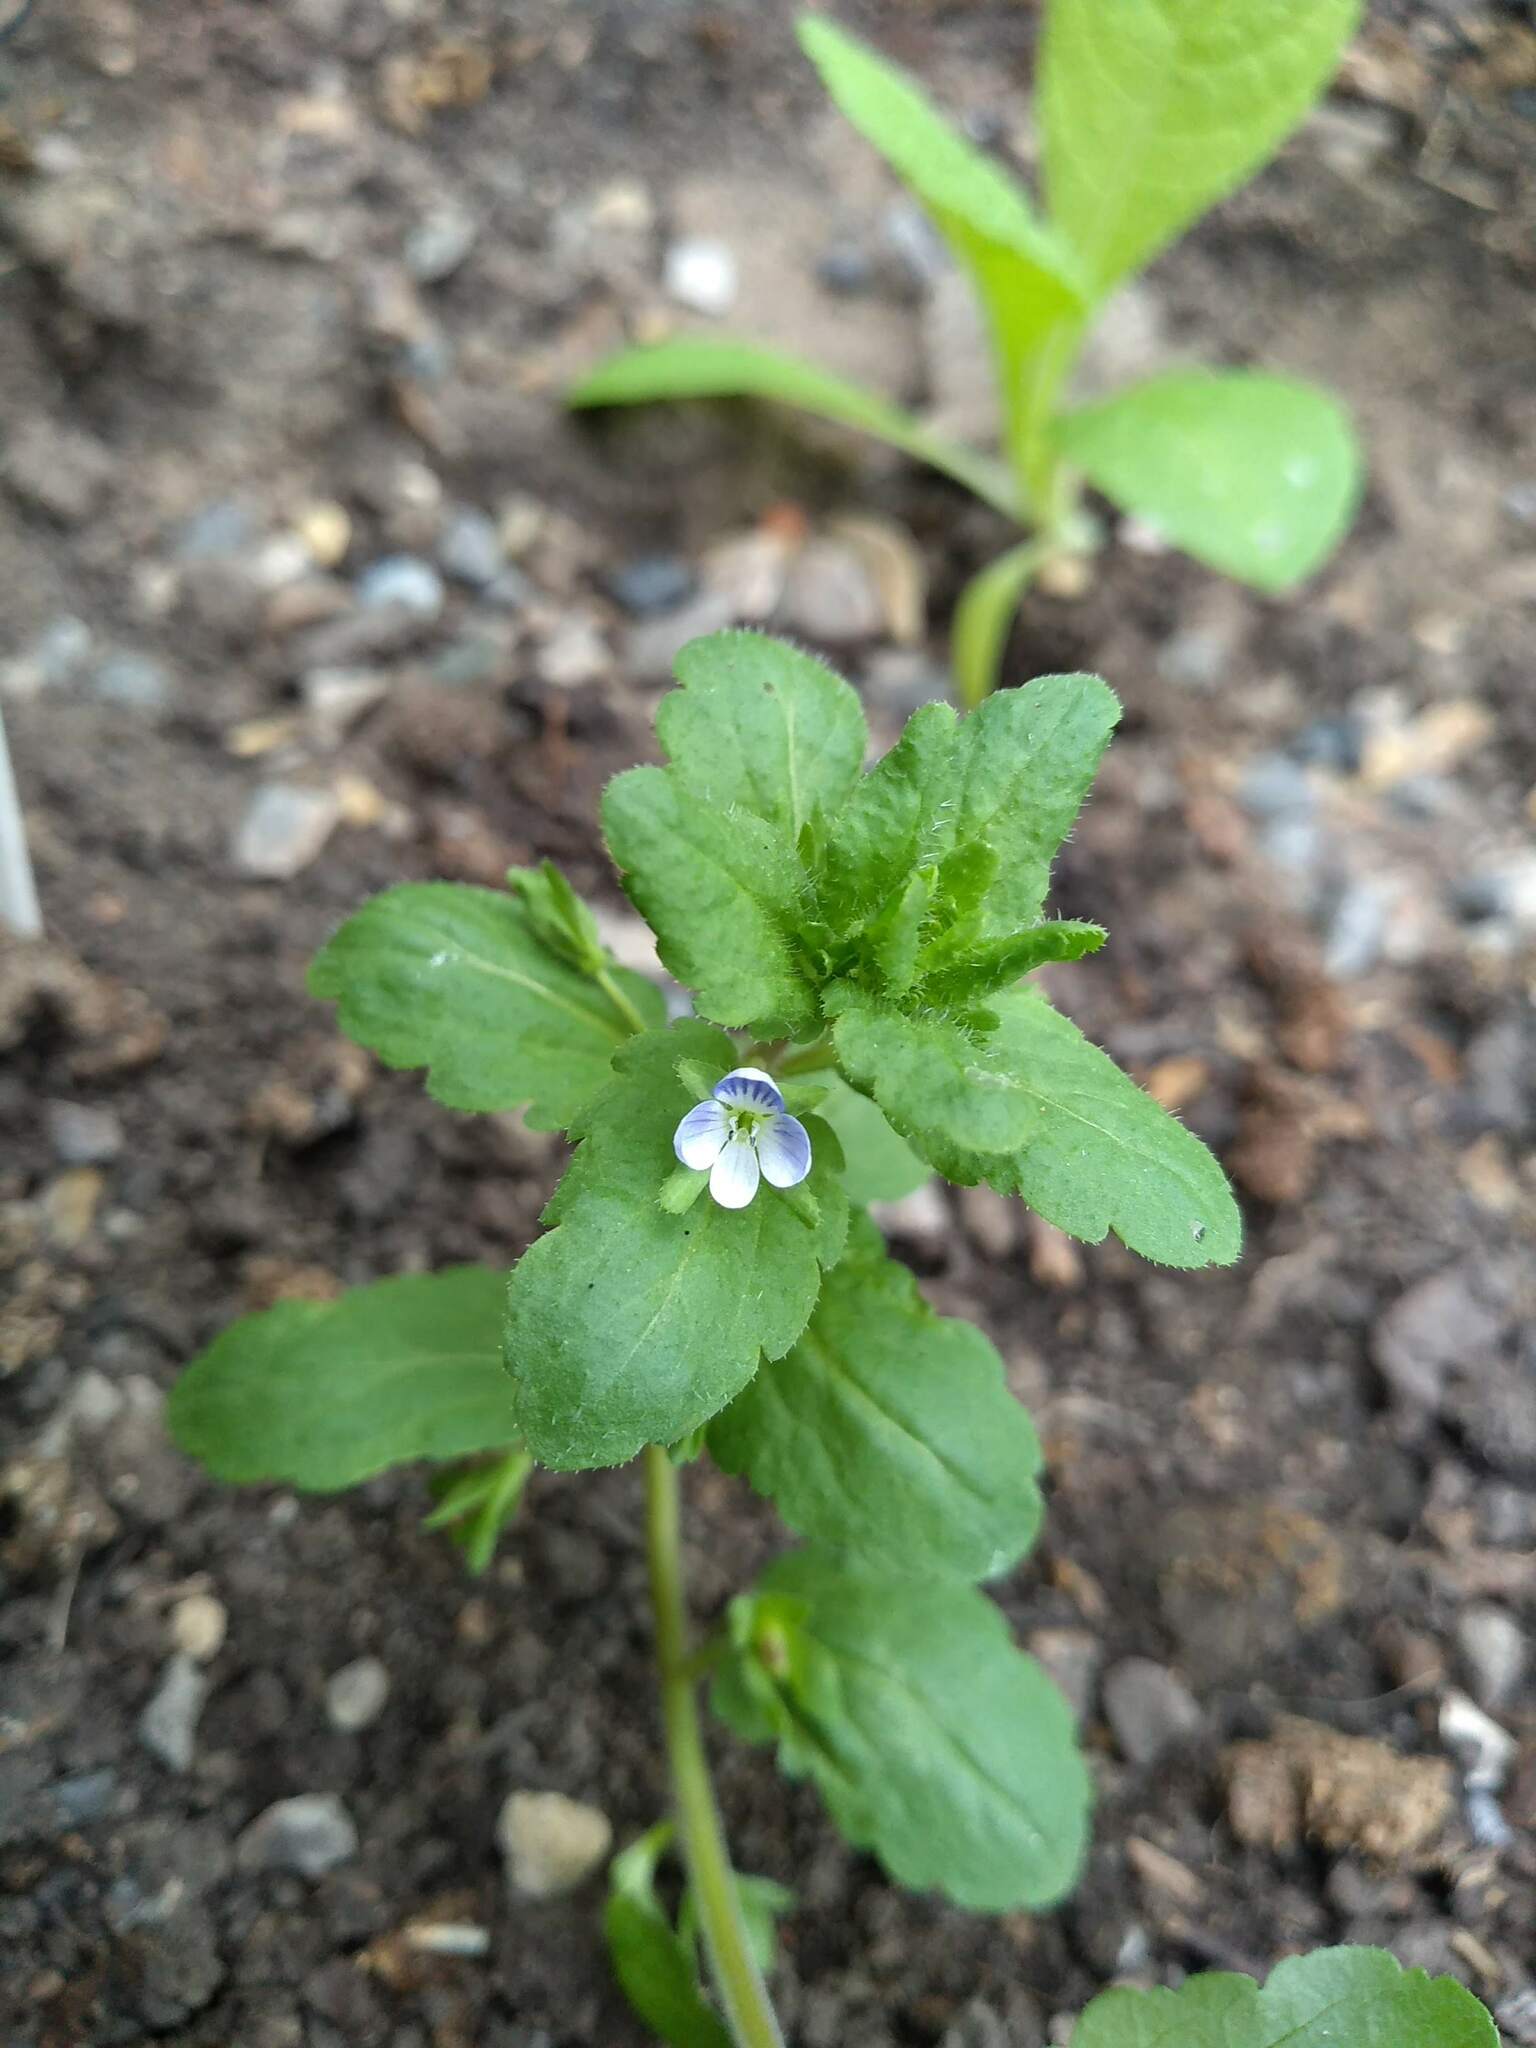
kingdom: Plantae
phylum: Tracheophyta
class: Magnoliopsida
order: Lamiales
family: Plantaginaceae
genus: Veronica
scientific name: Veronica agrestis
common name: Green field-speedwell
